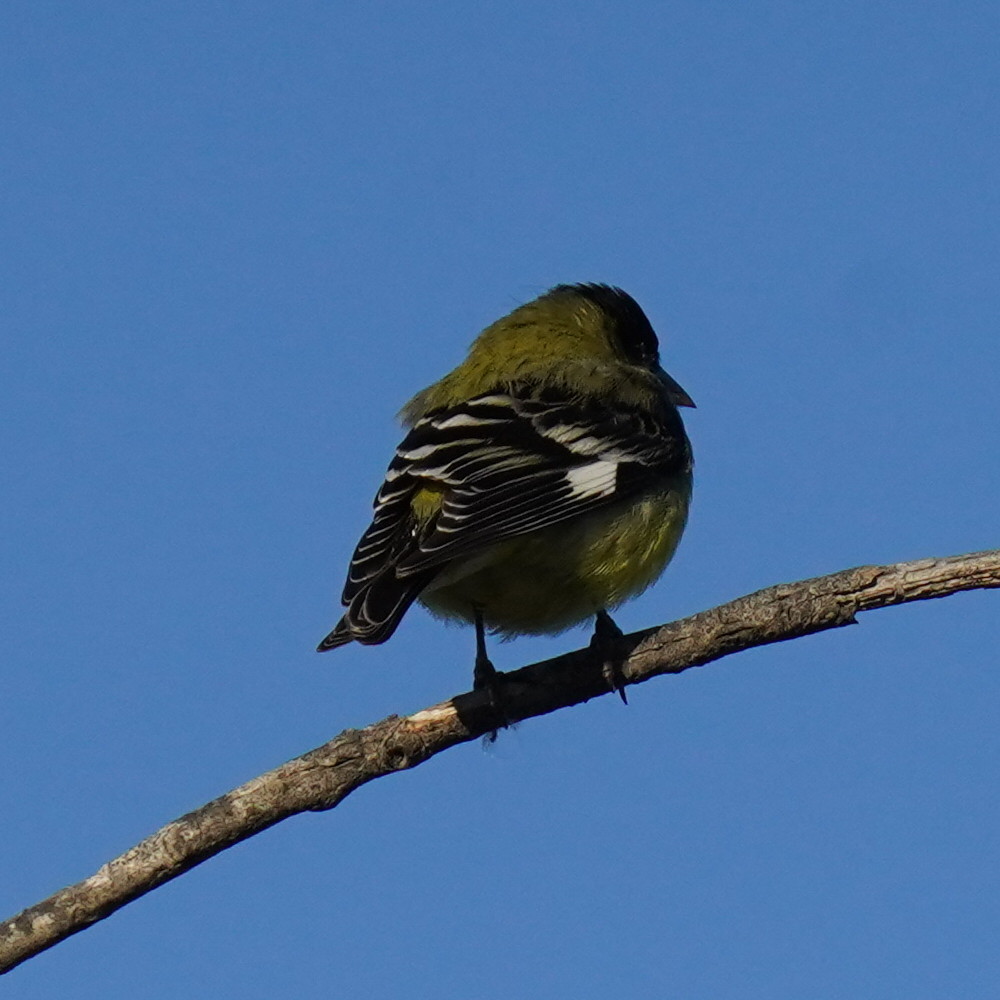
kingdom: Animalia
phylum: Chordata
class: Aves
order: Passeriformes
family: Fringillidae
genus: Spinus
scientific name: Spinus psaltria
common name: Lesser goldfinch
